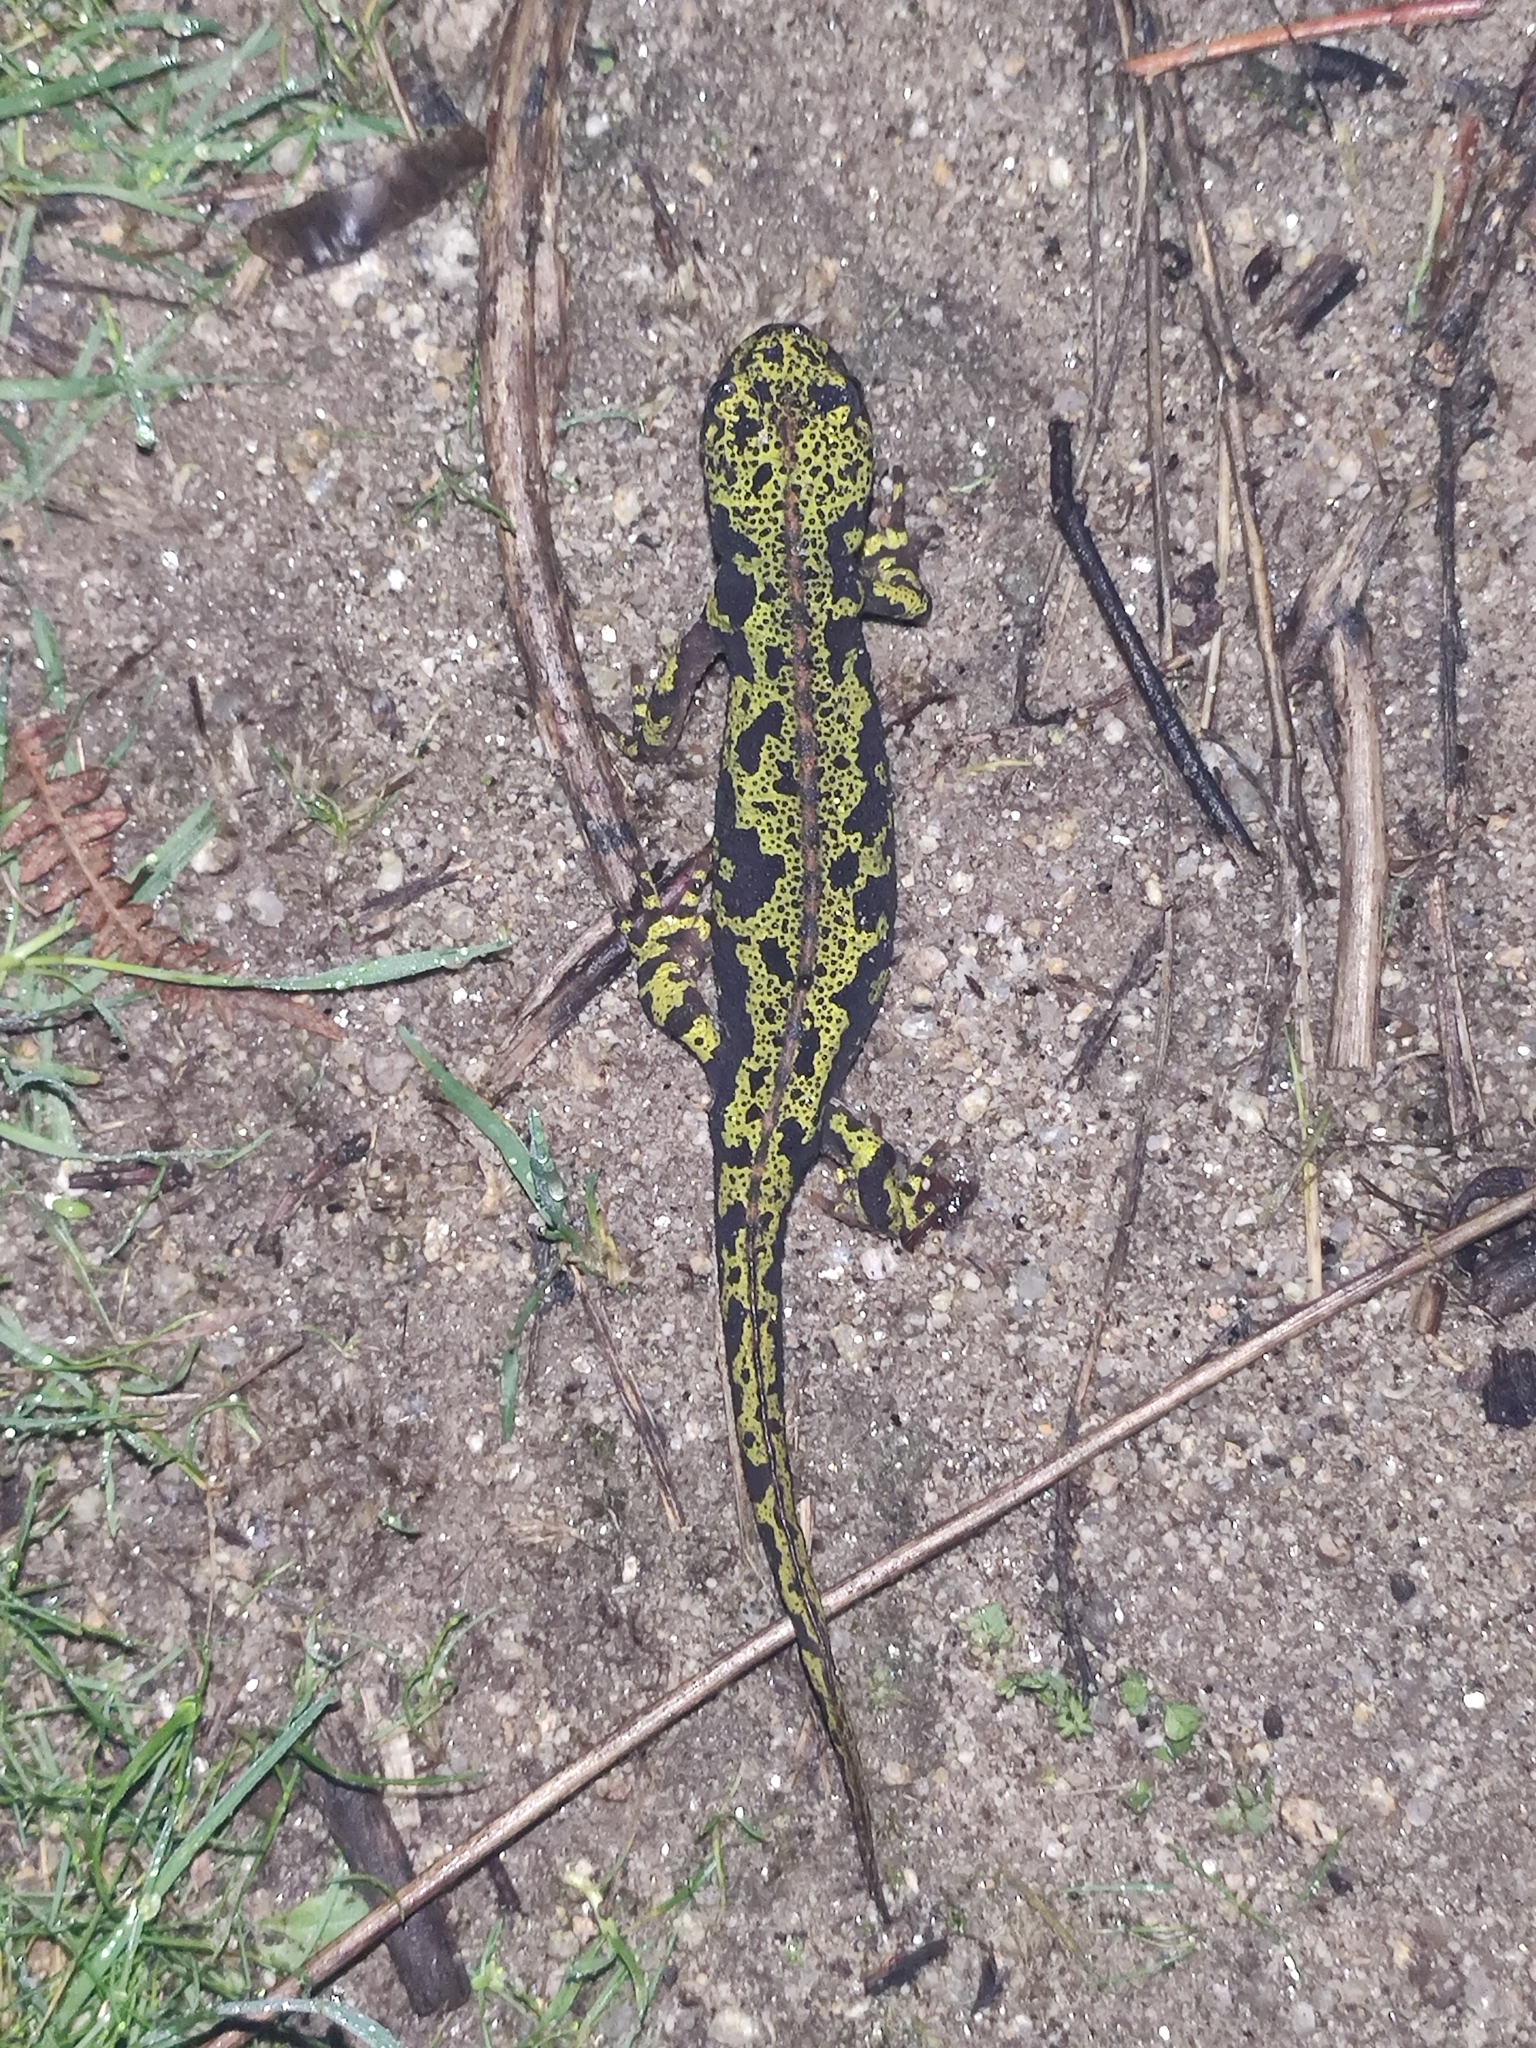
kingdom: Animalia
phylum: Chordata
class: Amphibia
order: Caudata
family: Salamandridae
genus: Triturus
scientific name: Triturus marmoratus
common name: Marbled newt
